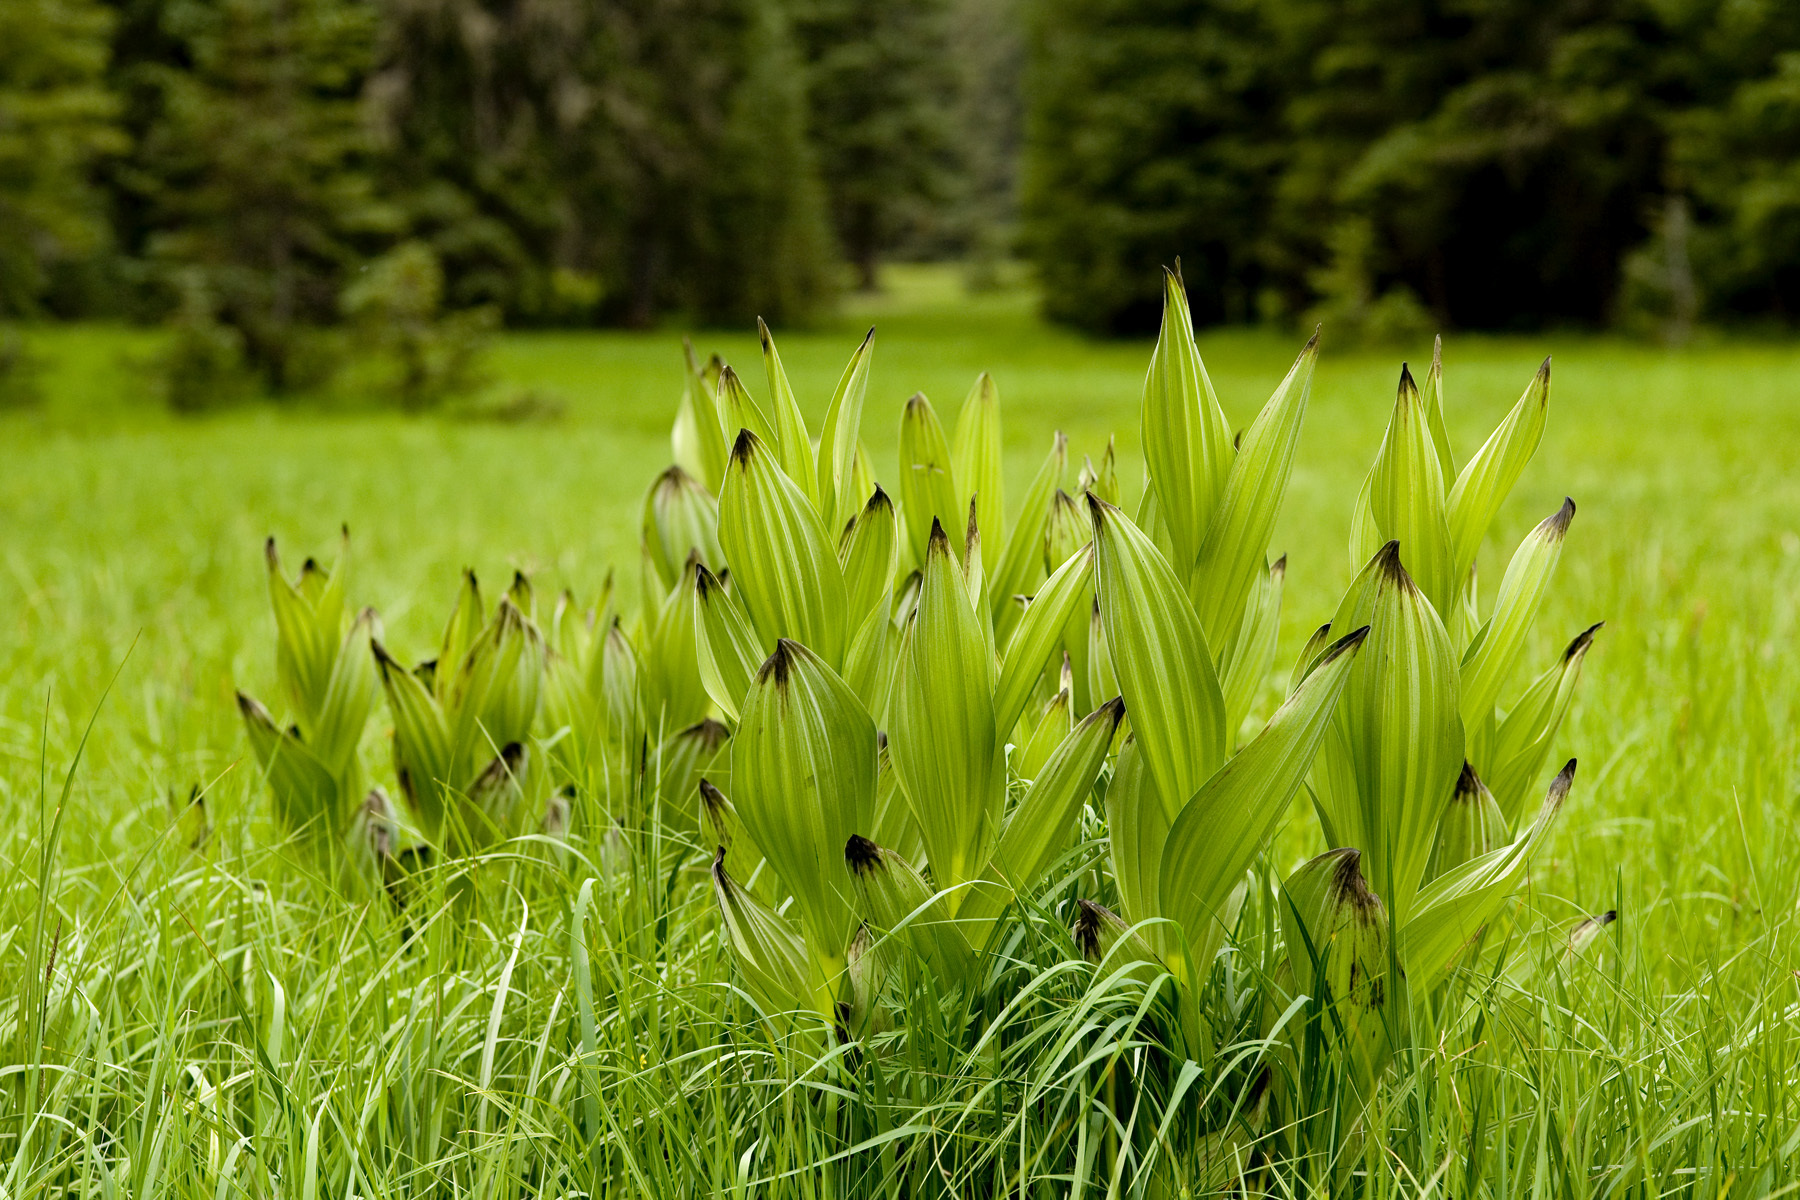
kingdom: Plantae
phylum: Tracheophyta
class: Liliopsida
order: Liliales
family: Melanthiaceae
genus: Veratrum
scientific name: Veratrum californicum
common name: California veratrum
